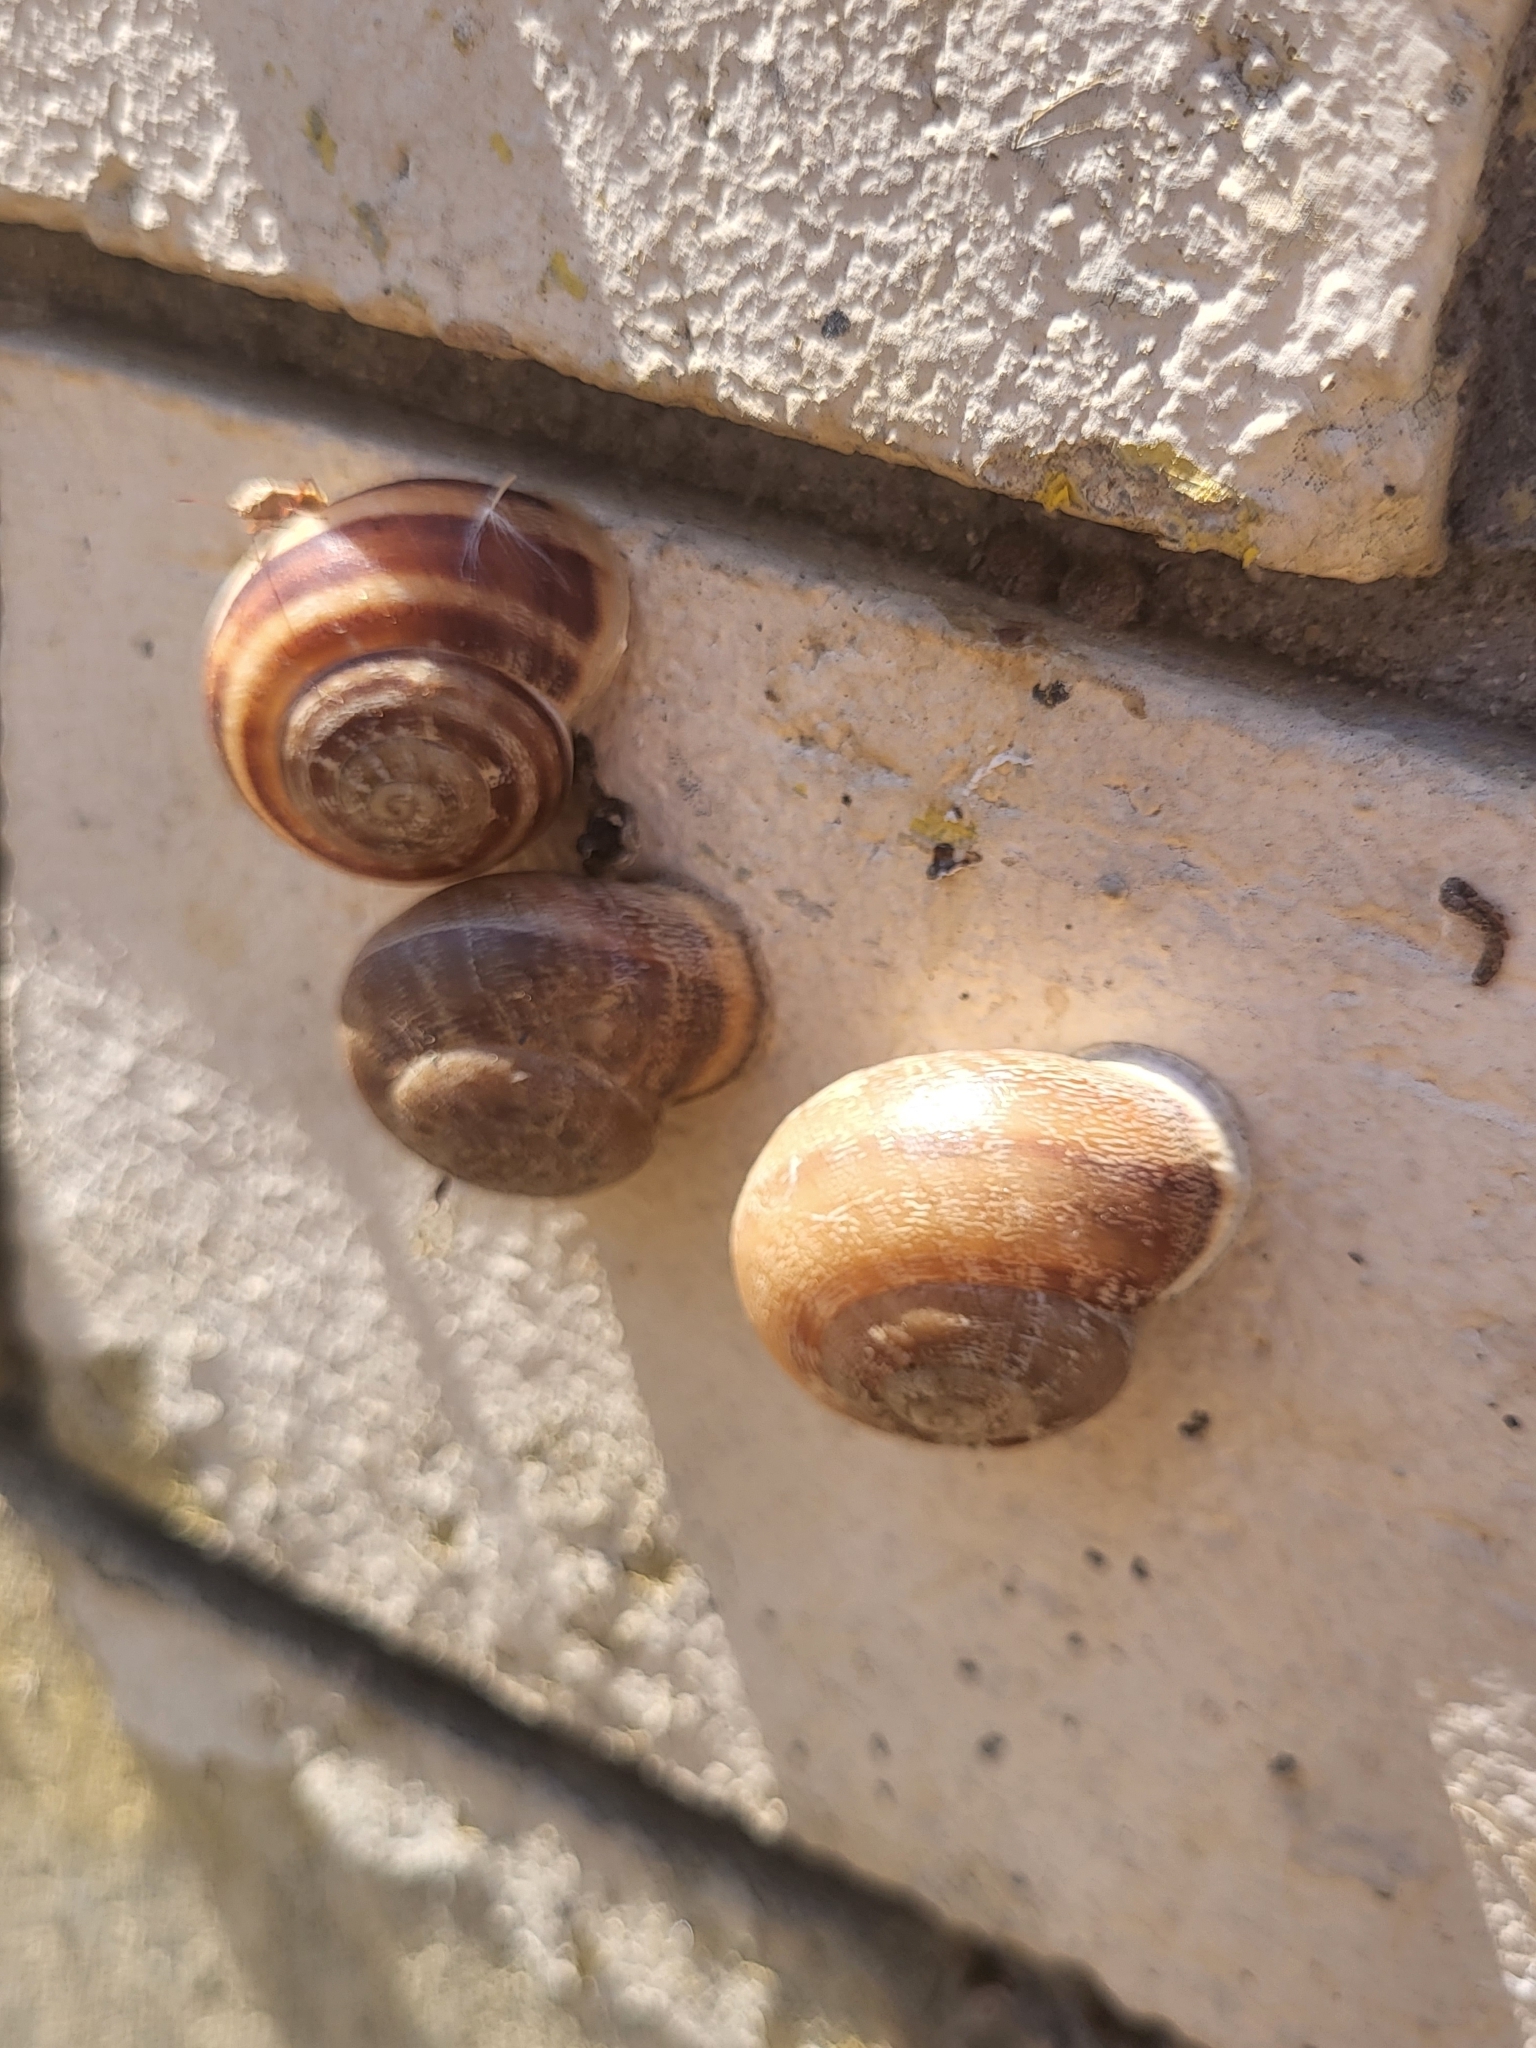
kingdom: Animalia
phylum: Mollusca
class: Gastropoda
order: Stylommatophora
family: Helicidae
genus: Eobania
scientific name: Eobania vermiculata
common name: Chocolateband snail
